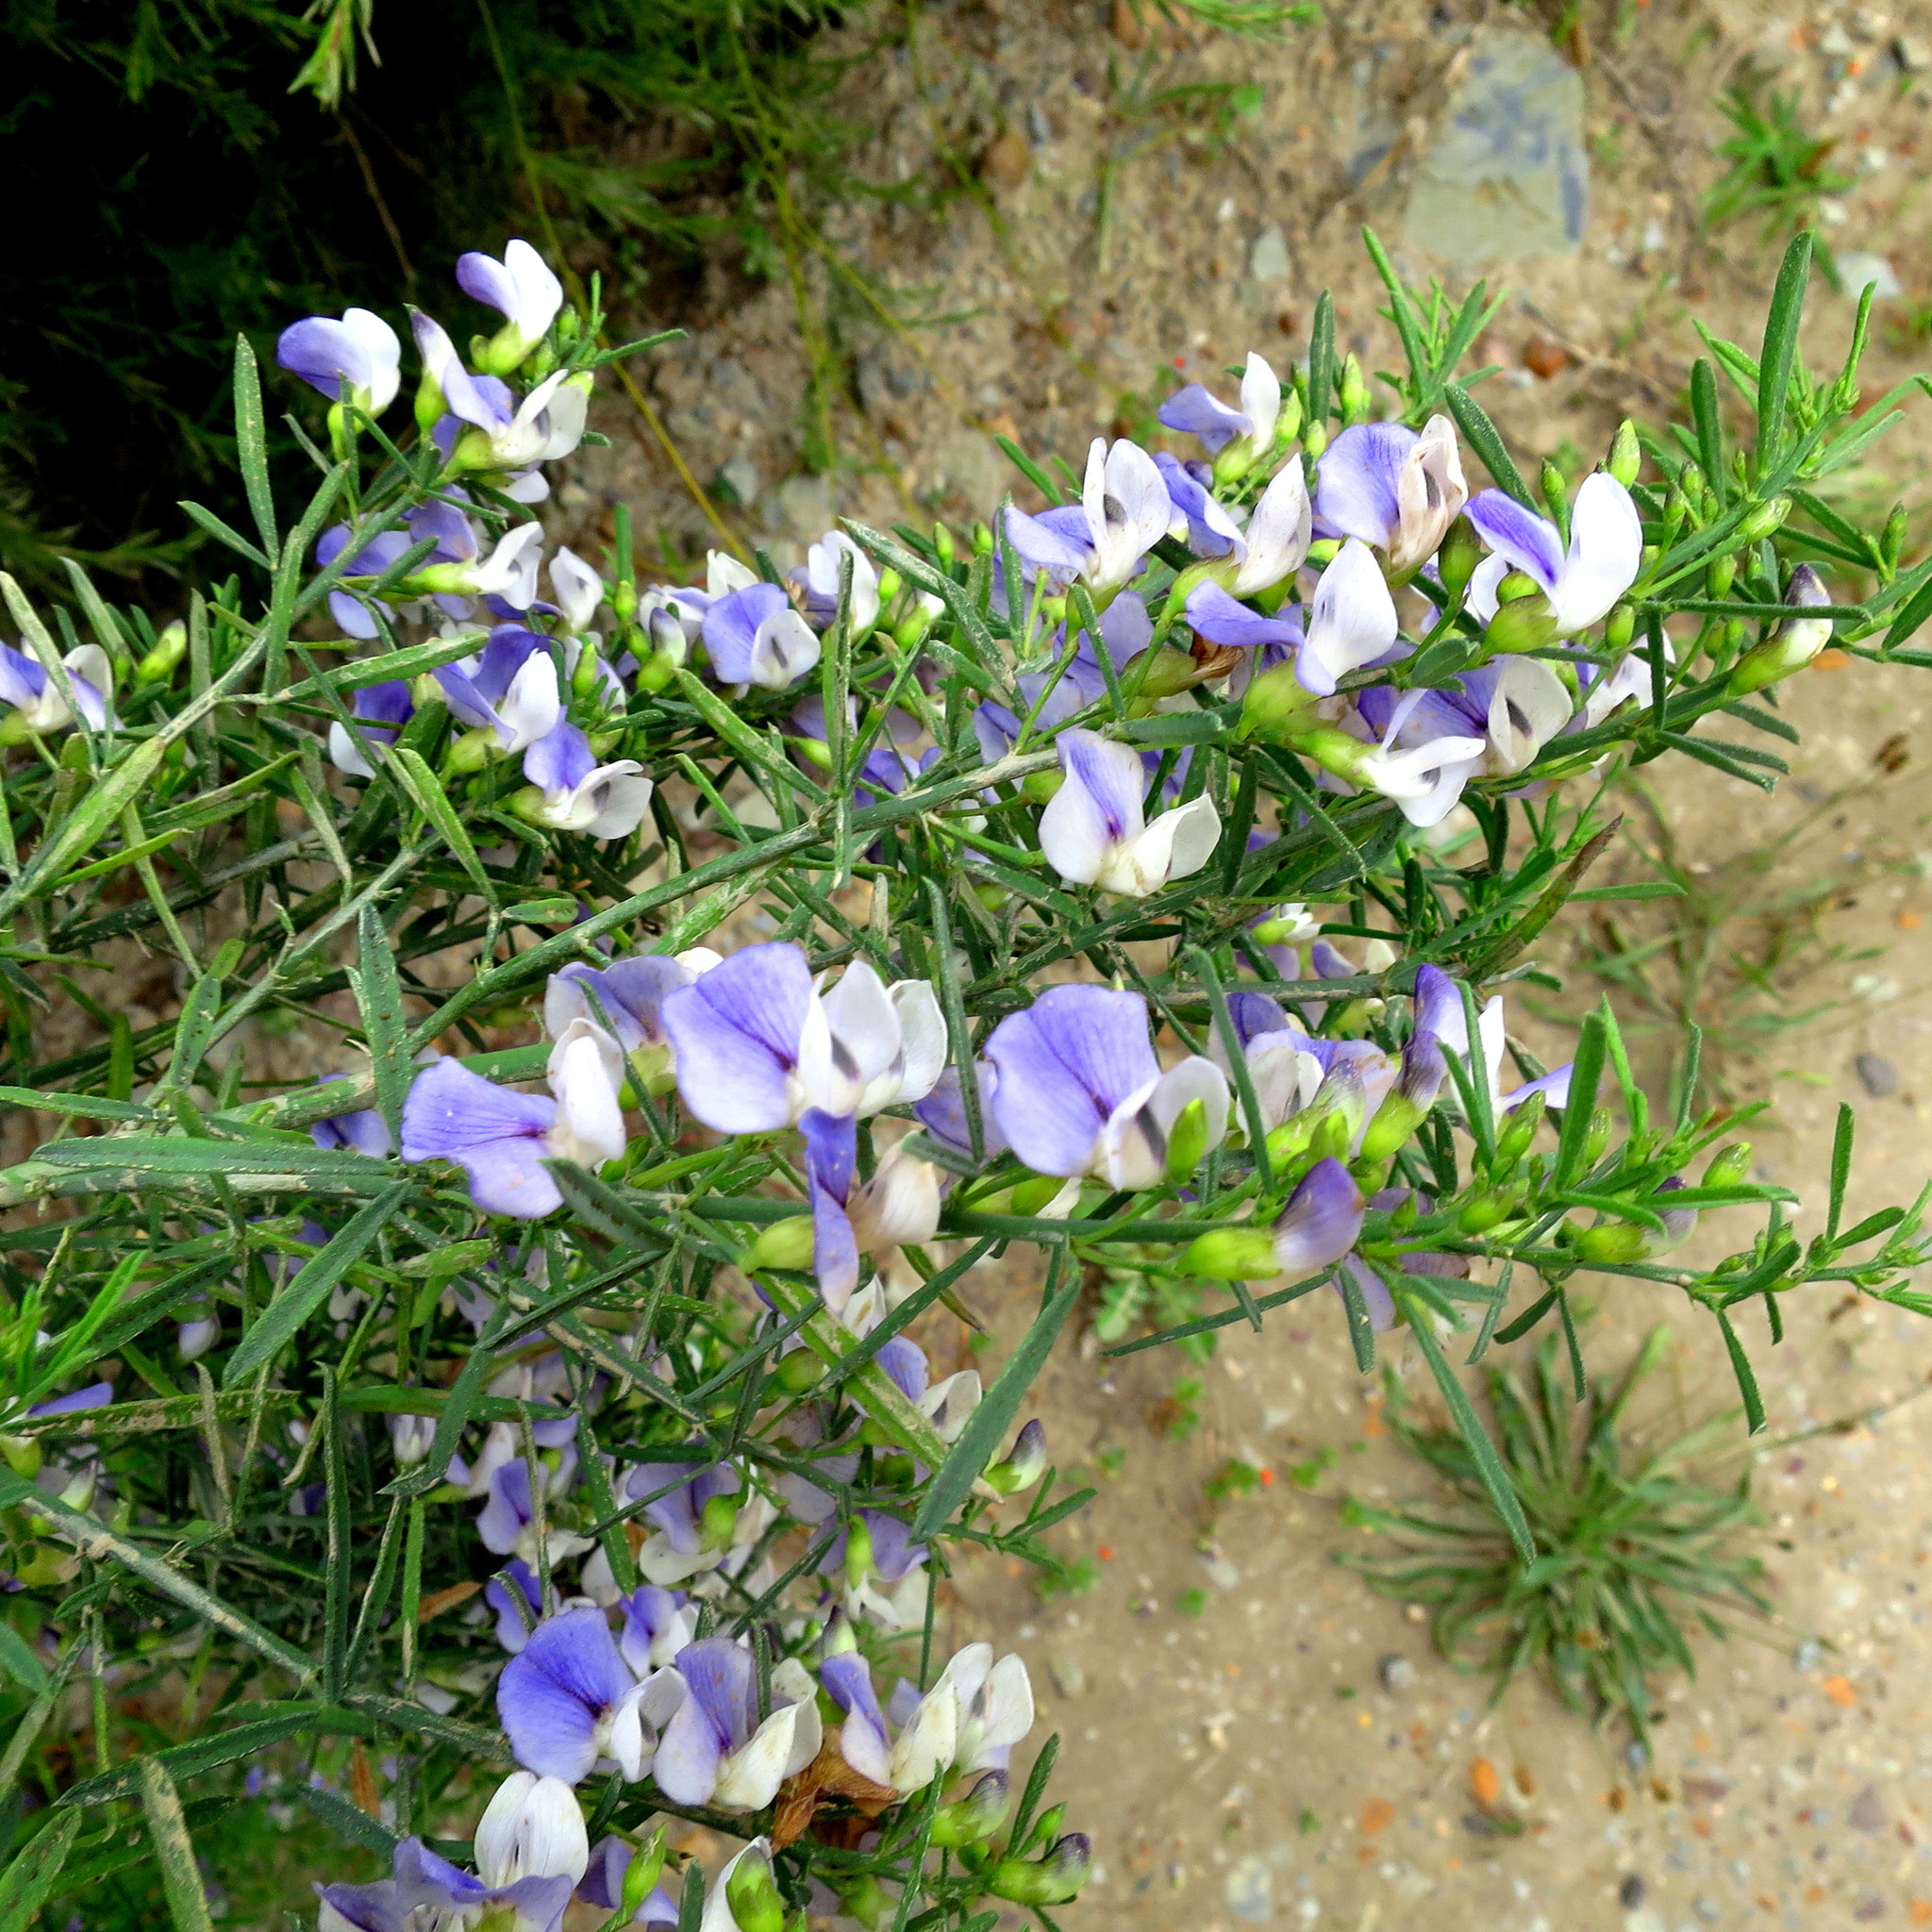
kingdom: Plantae
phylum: Tracheophyta
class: Magnoliopsida
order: Fabales
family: Fabaceae
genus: Psoralea
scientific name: Psoralea axillaris
